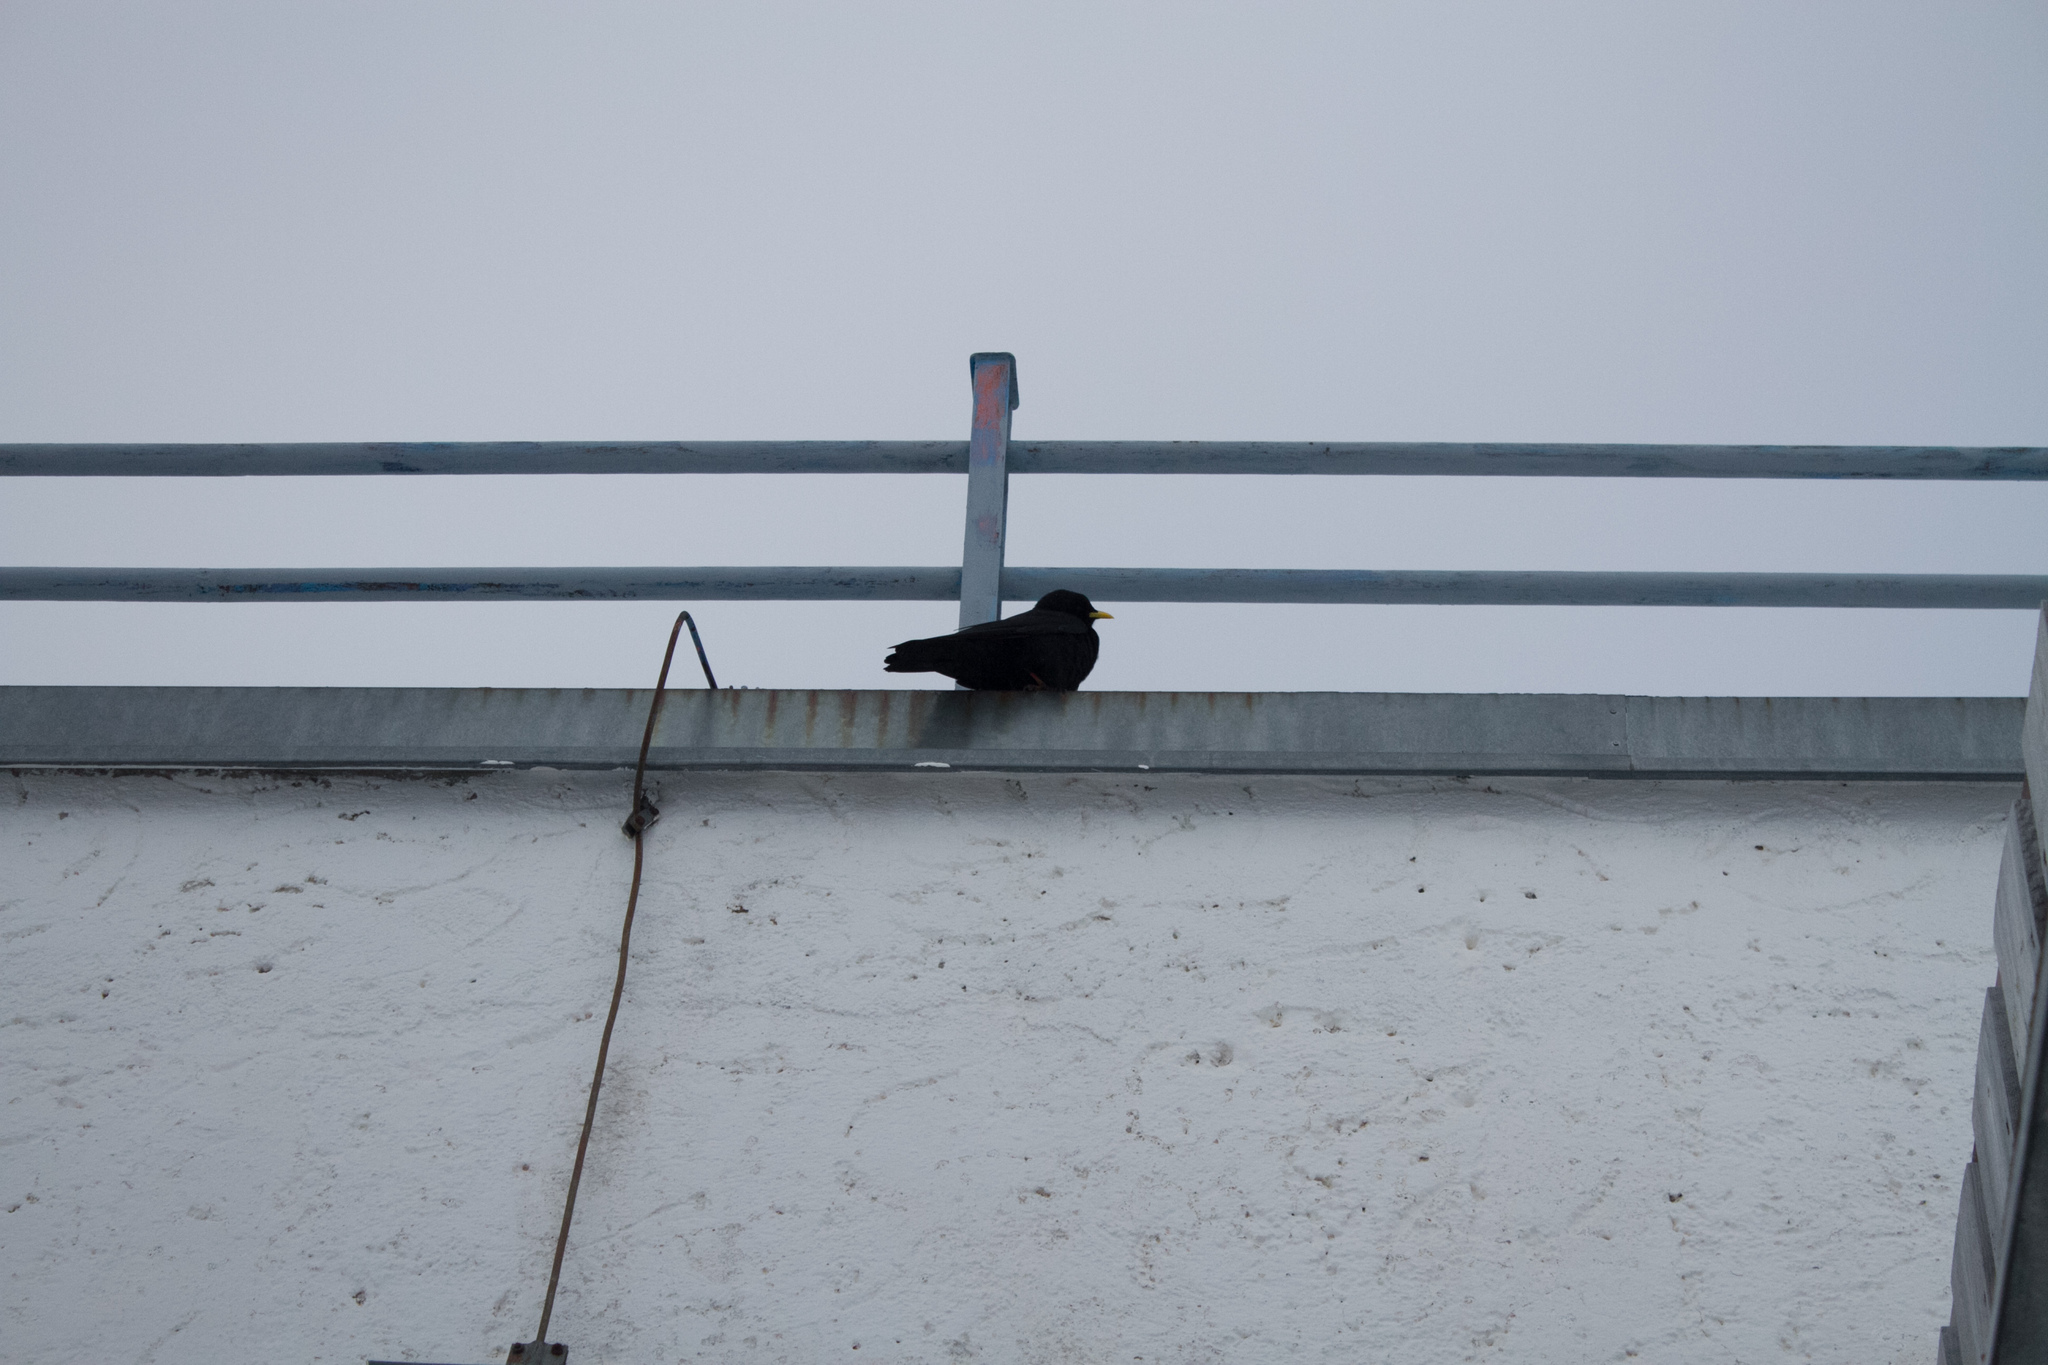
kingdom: Animalia
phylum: Chordata
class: Aves
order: Passeriformes
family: Corvidae
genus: Pyrrhocorax
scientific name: Pyrrhocorax graculus
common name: Alpine chough
